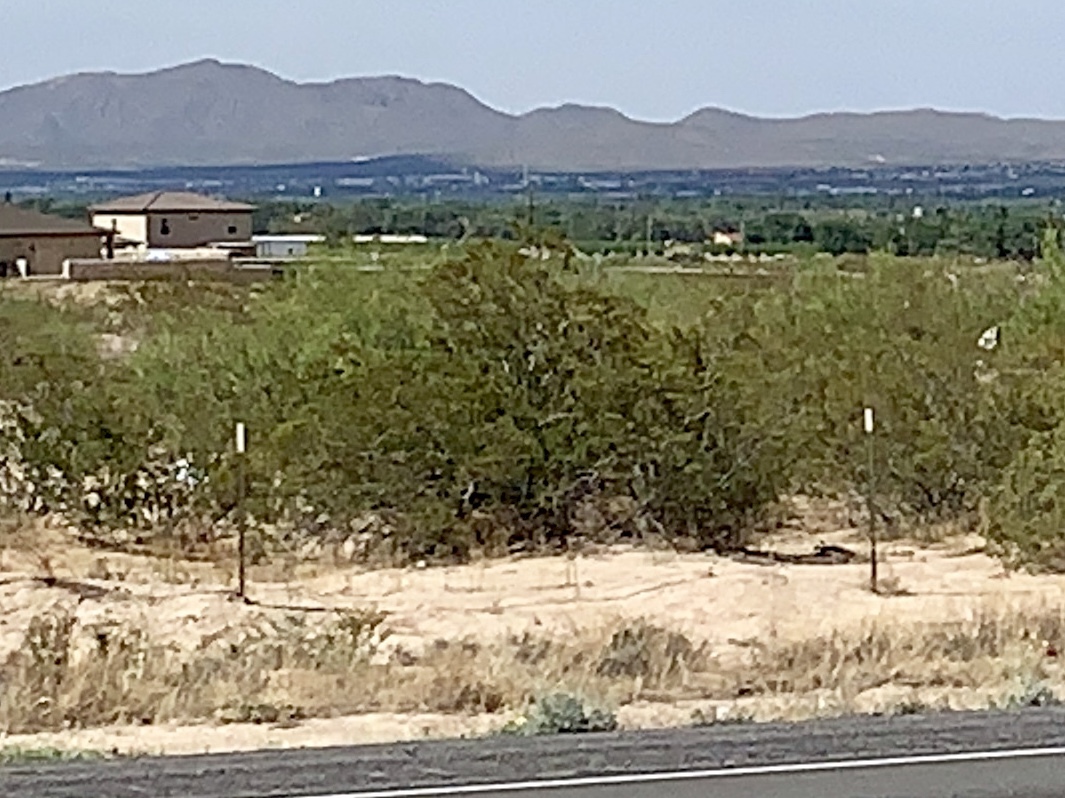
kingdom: Plantae
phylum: Tracheophyta
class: Magnoliopsida
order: Zygophyllales
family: Zygophyllaceae
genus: Larrea
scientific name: Larrea tridentata
